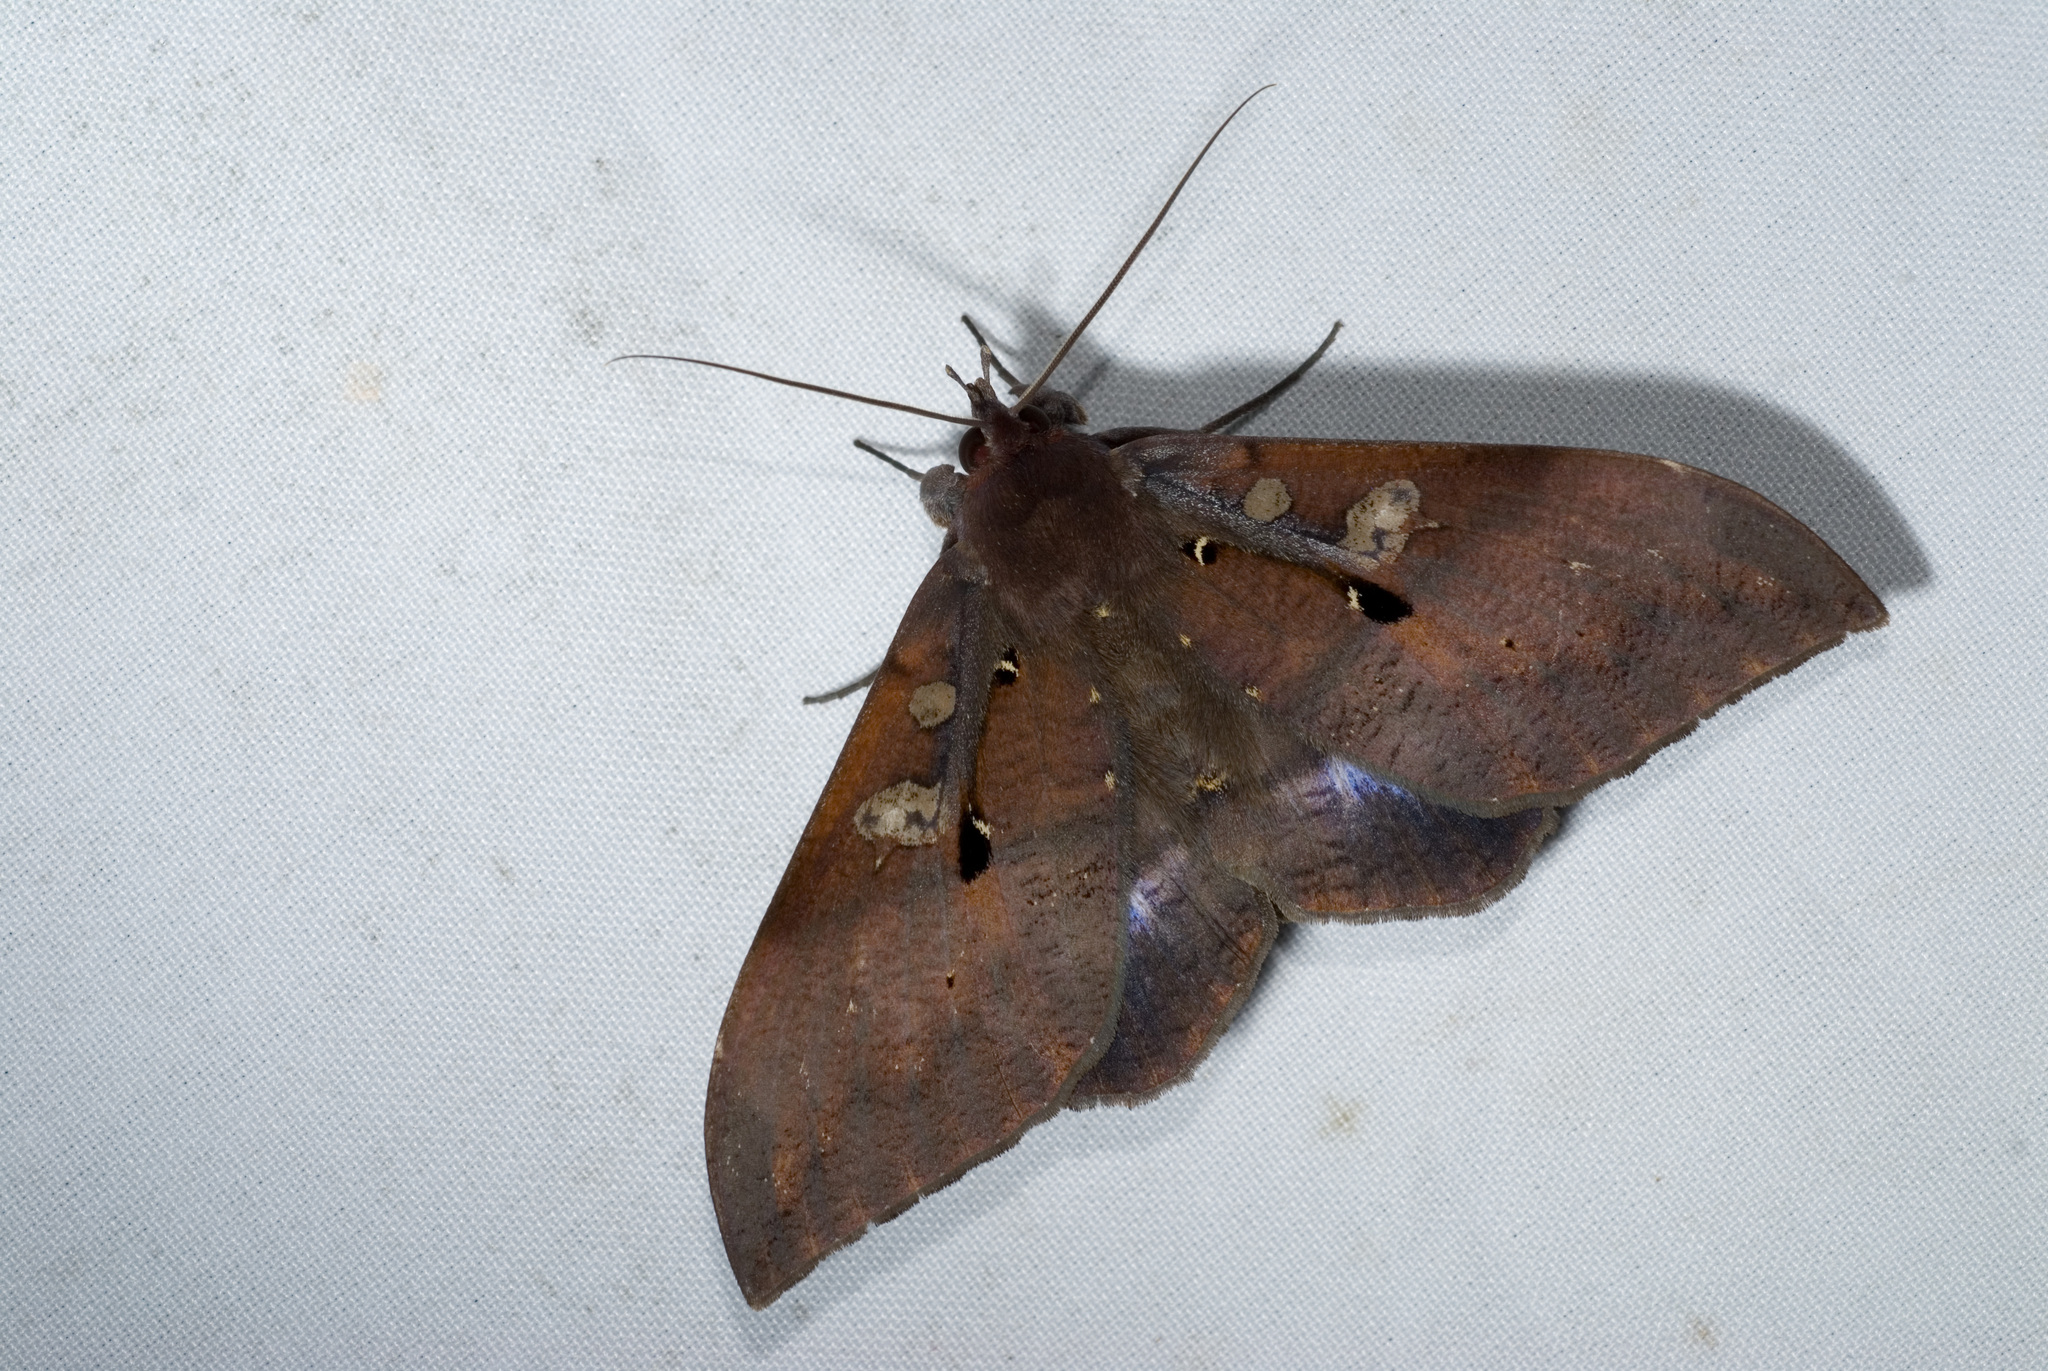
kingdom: Animalia
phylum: Arthropoda
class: Insecta
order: Lepidoptera
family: Erebidae
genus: Ischyja
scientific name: Ischyja manlia
